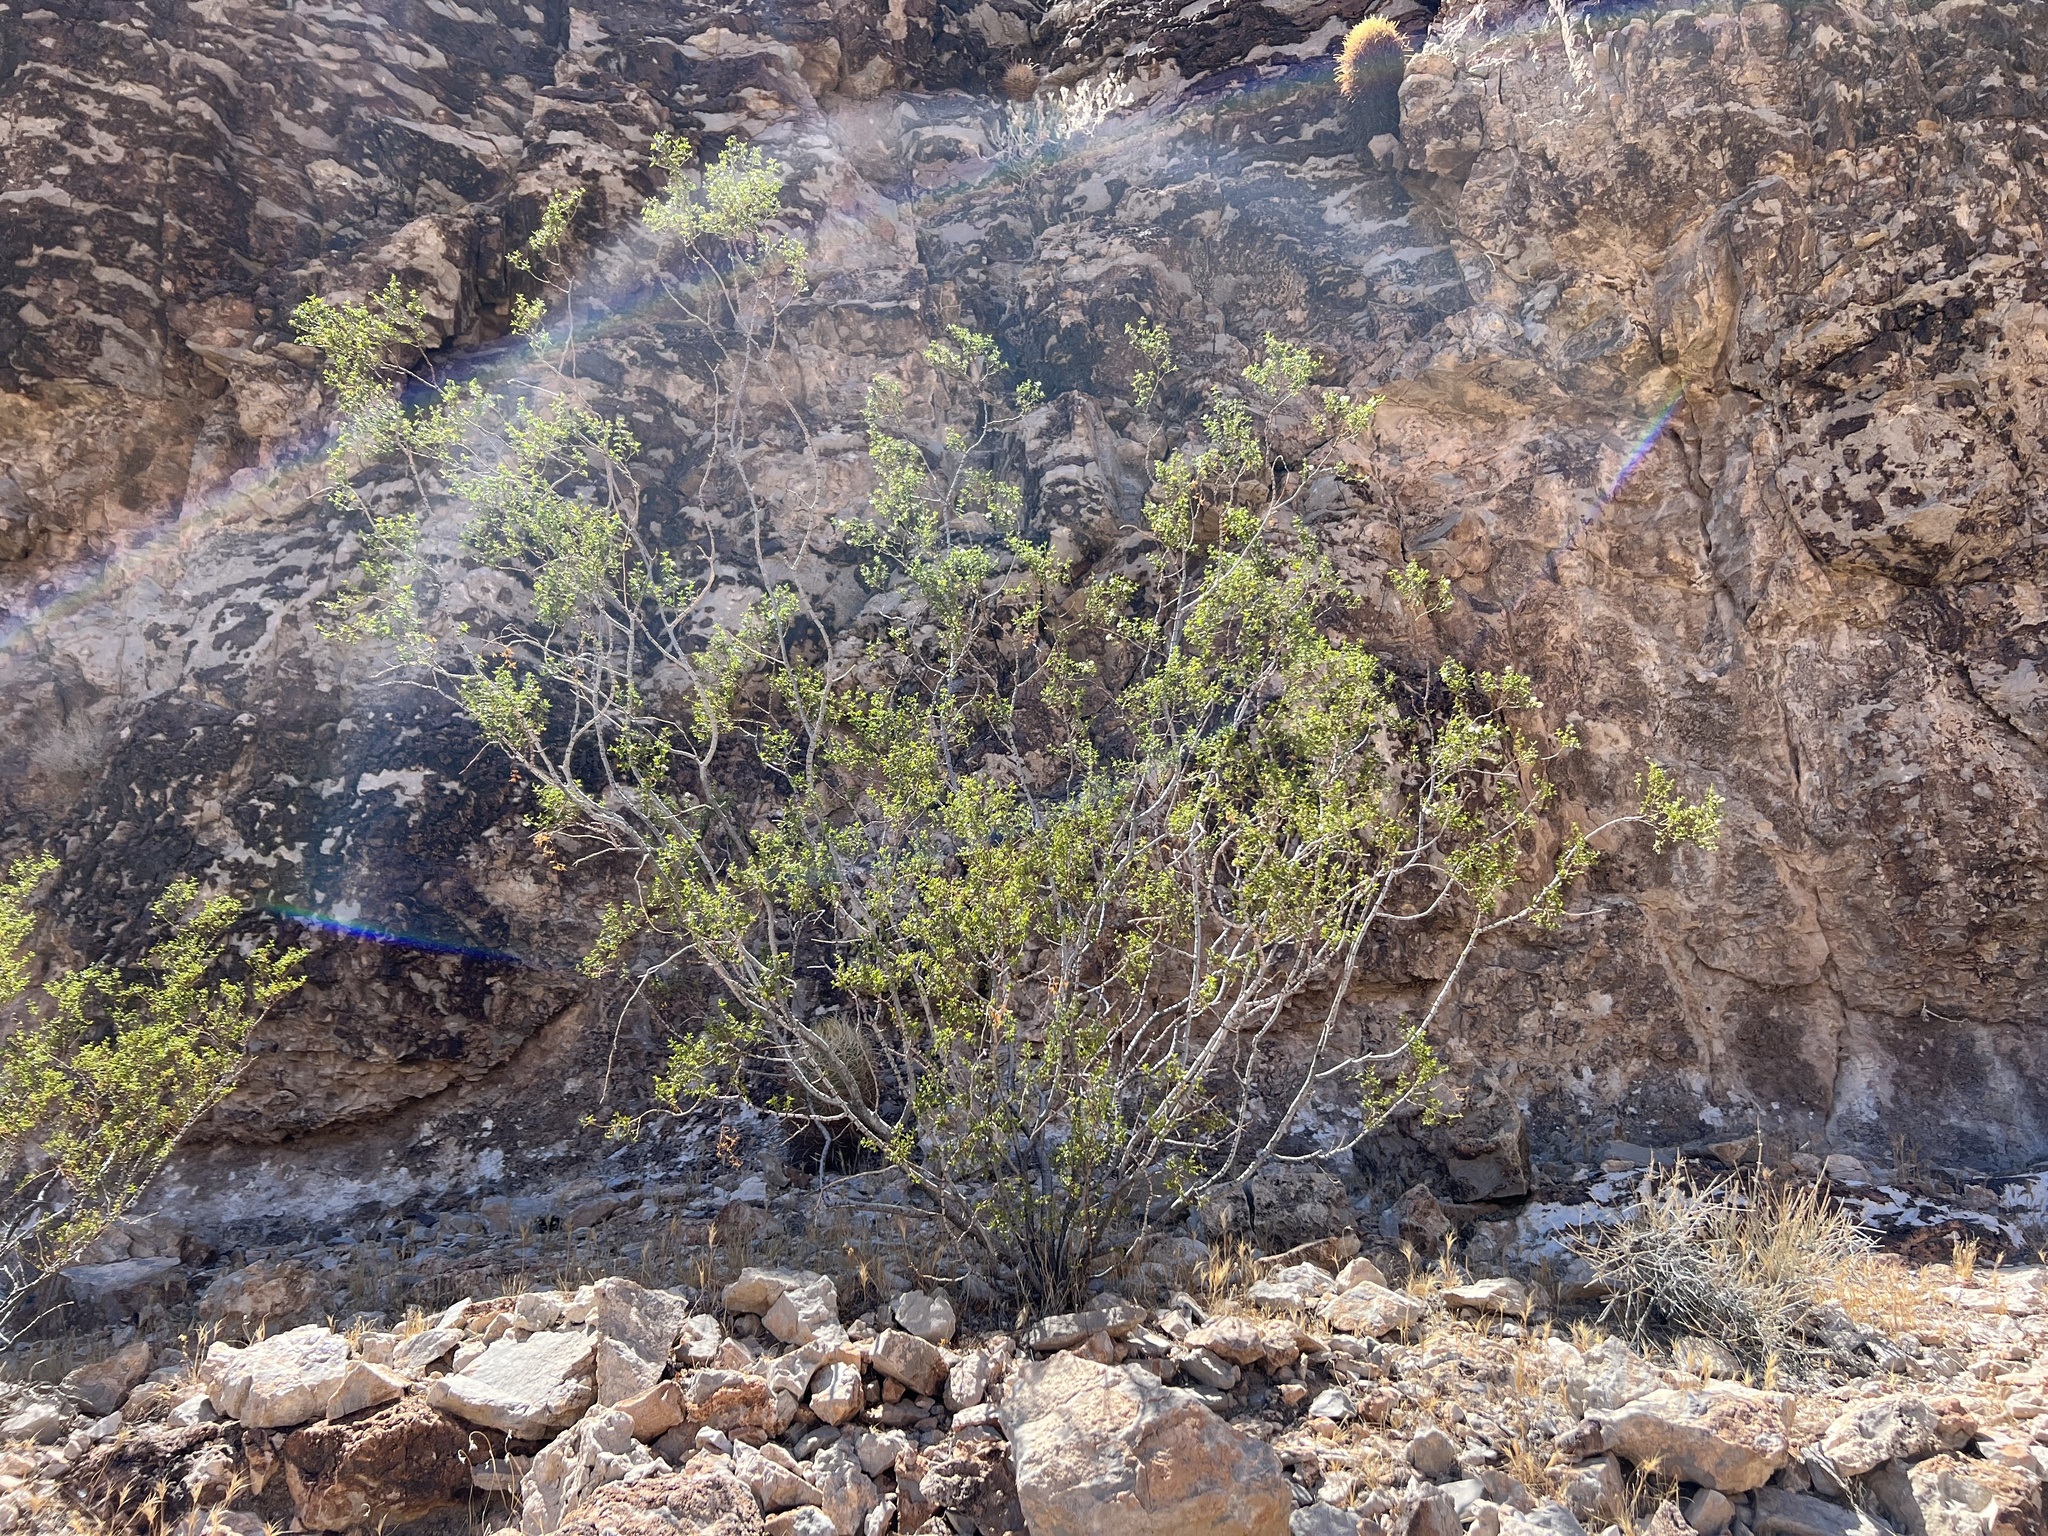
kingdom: Plantae
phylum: Tracheophyta
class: Magnoliopsida
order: Zygophyllales
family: Zygophyllaceae
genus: Larrea
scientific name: Larrea tridentata
